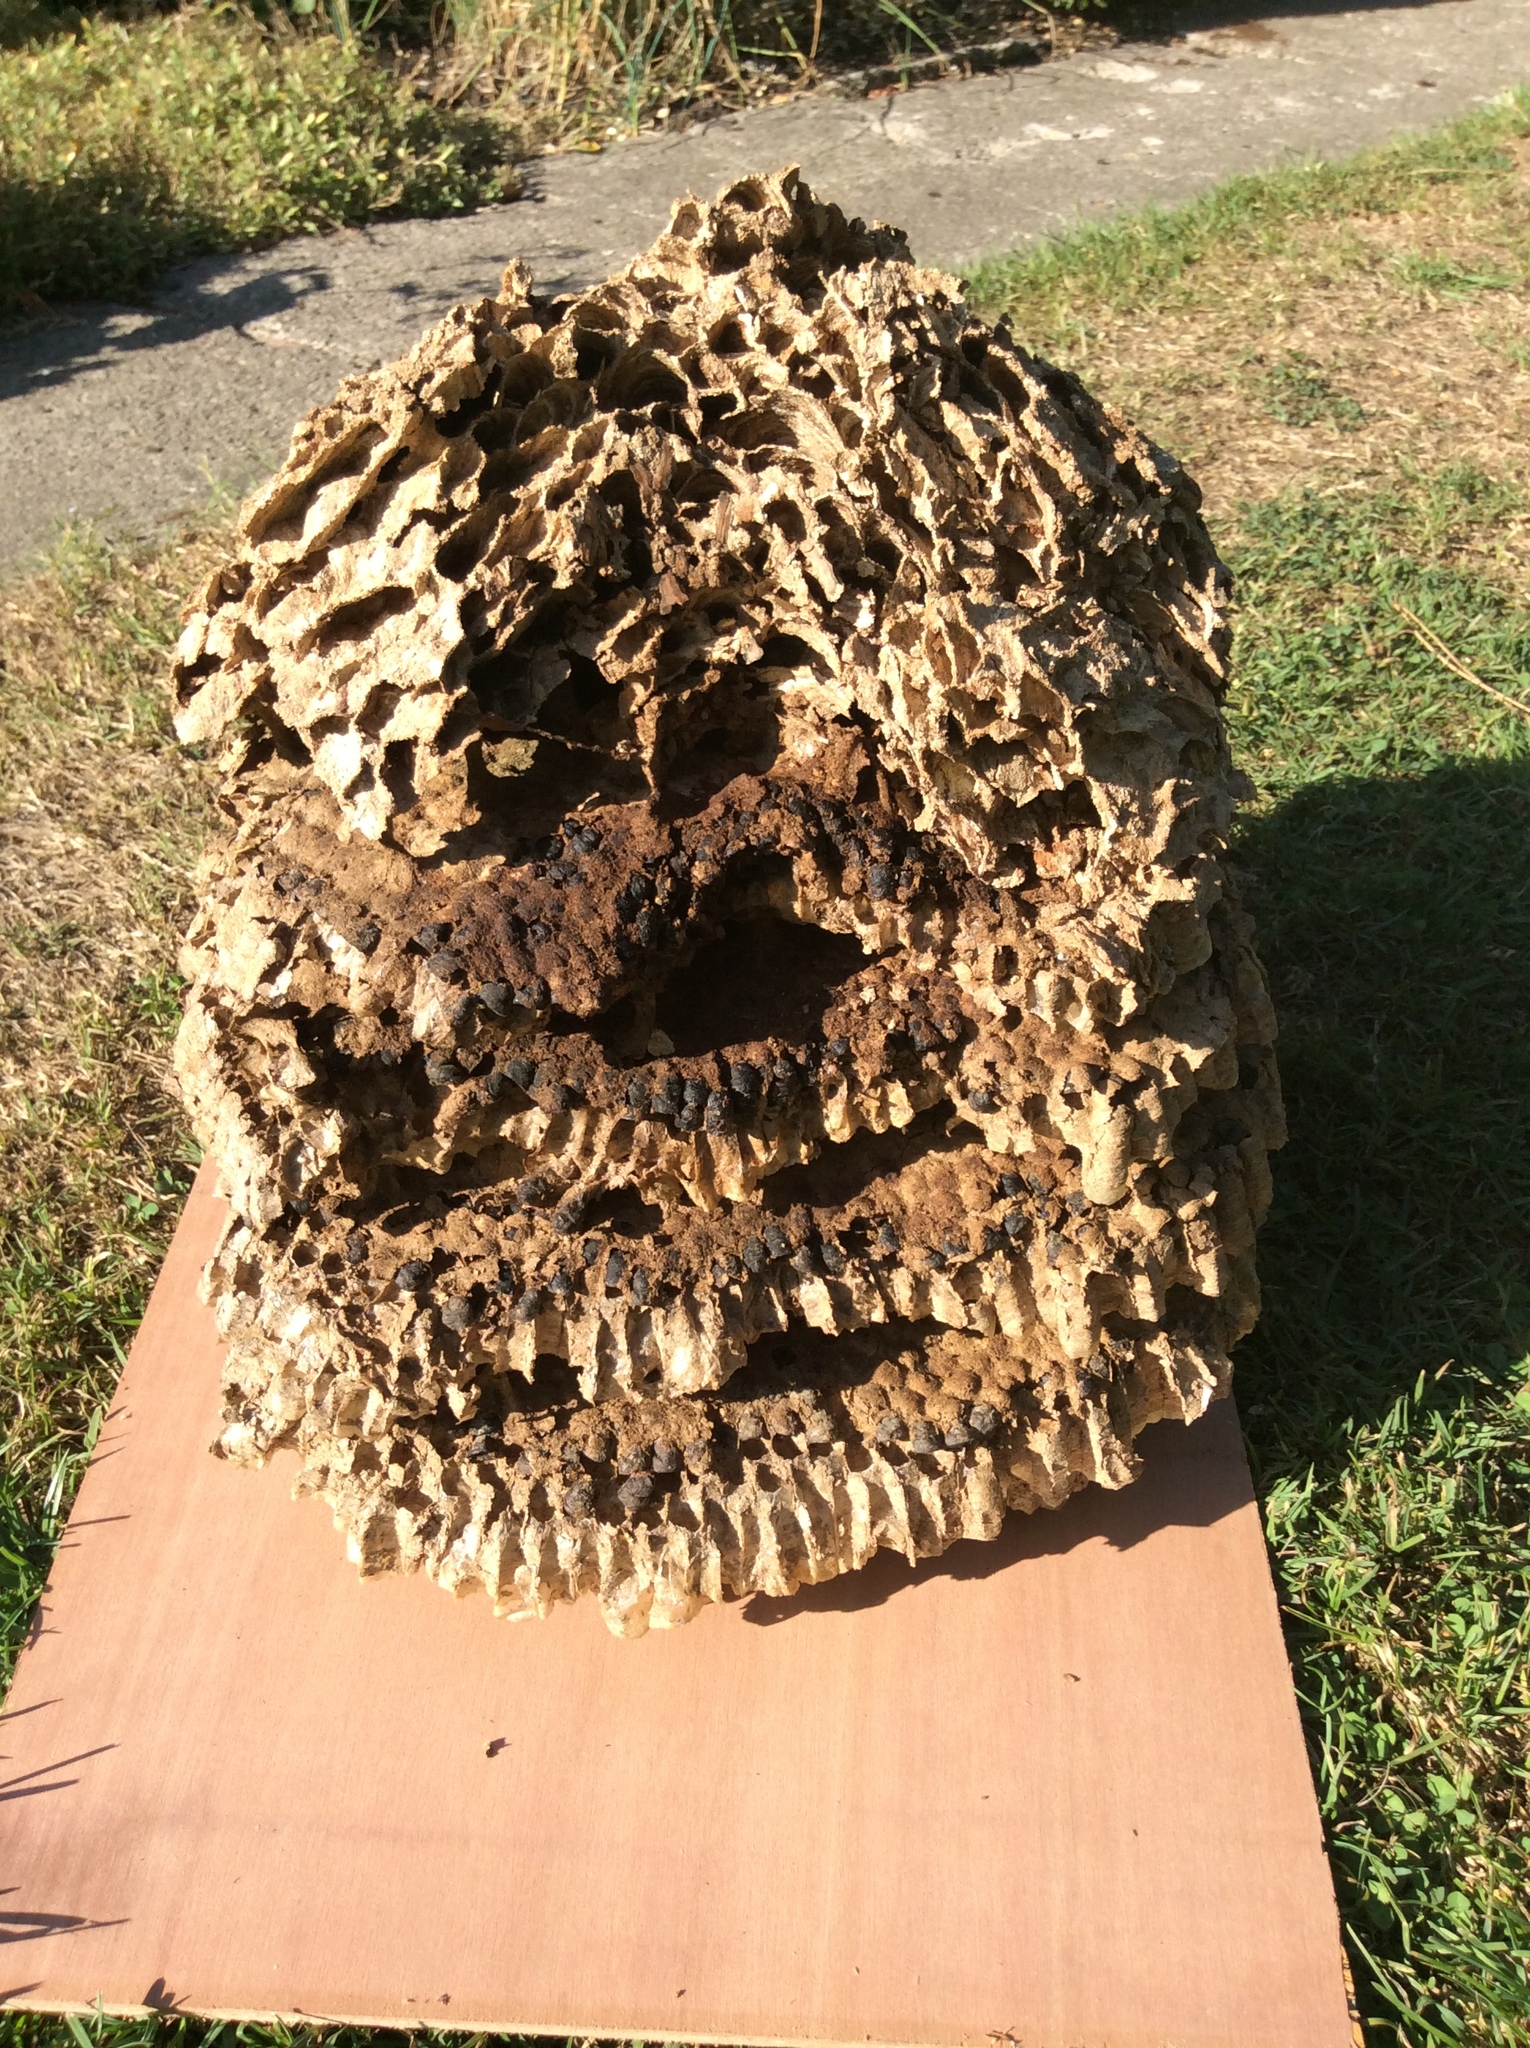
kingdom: Animalia
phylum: Arthropoda
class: Insecta
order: Hymenoptera
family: Vespidae
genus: Vespa
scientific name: Vespa velutina
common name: Asian hornet
